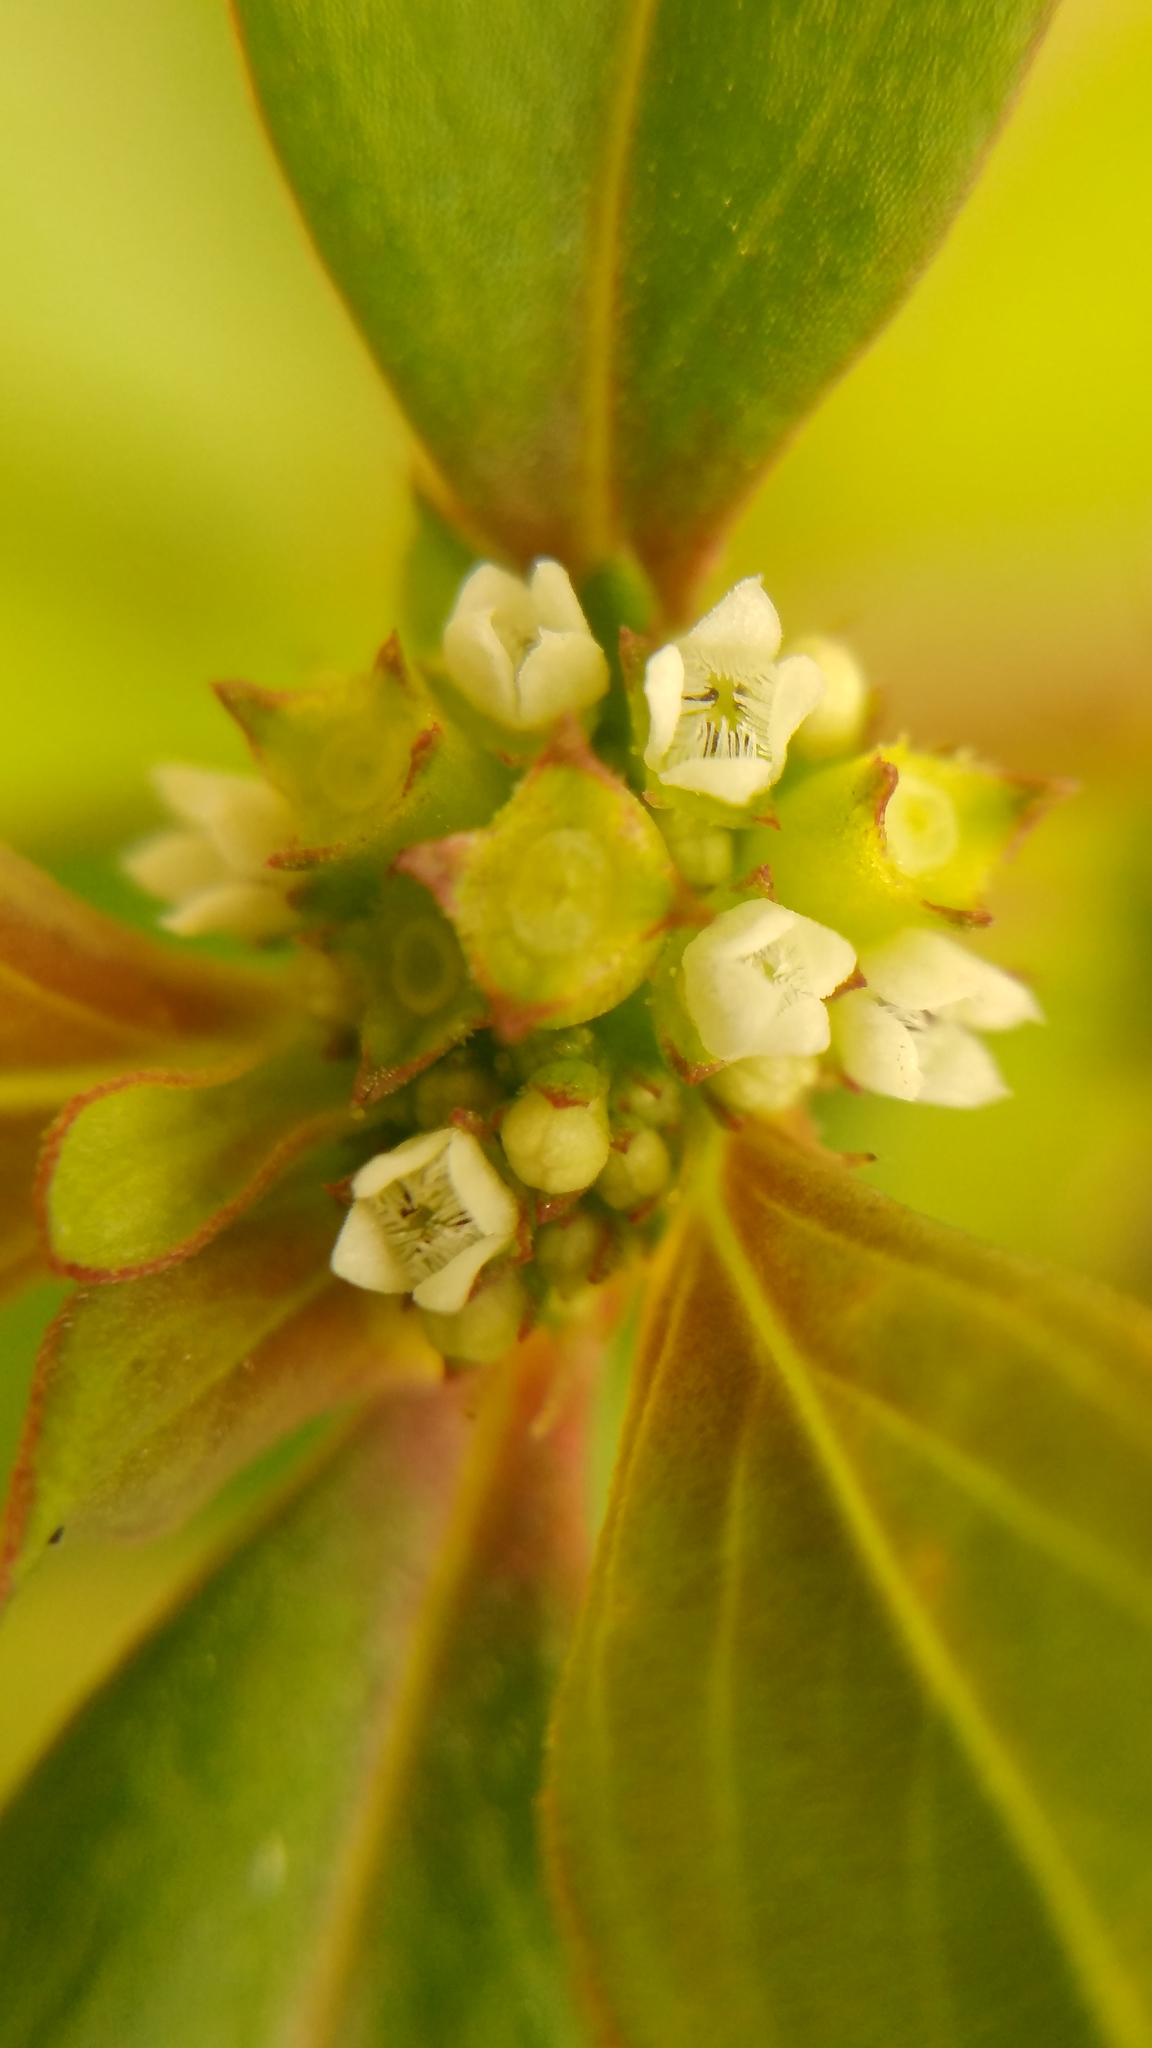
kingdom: Plantae
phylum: Tracheophyta
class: Magnoliopsida
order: Gentianales
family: Rubiaceae
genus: Spermacoce
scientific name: Spermacoce tenuior
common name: River false buttonweed
